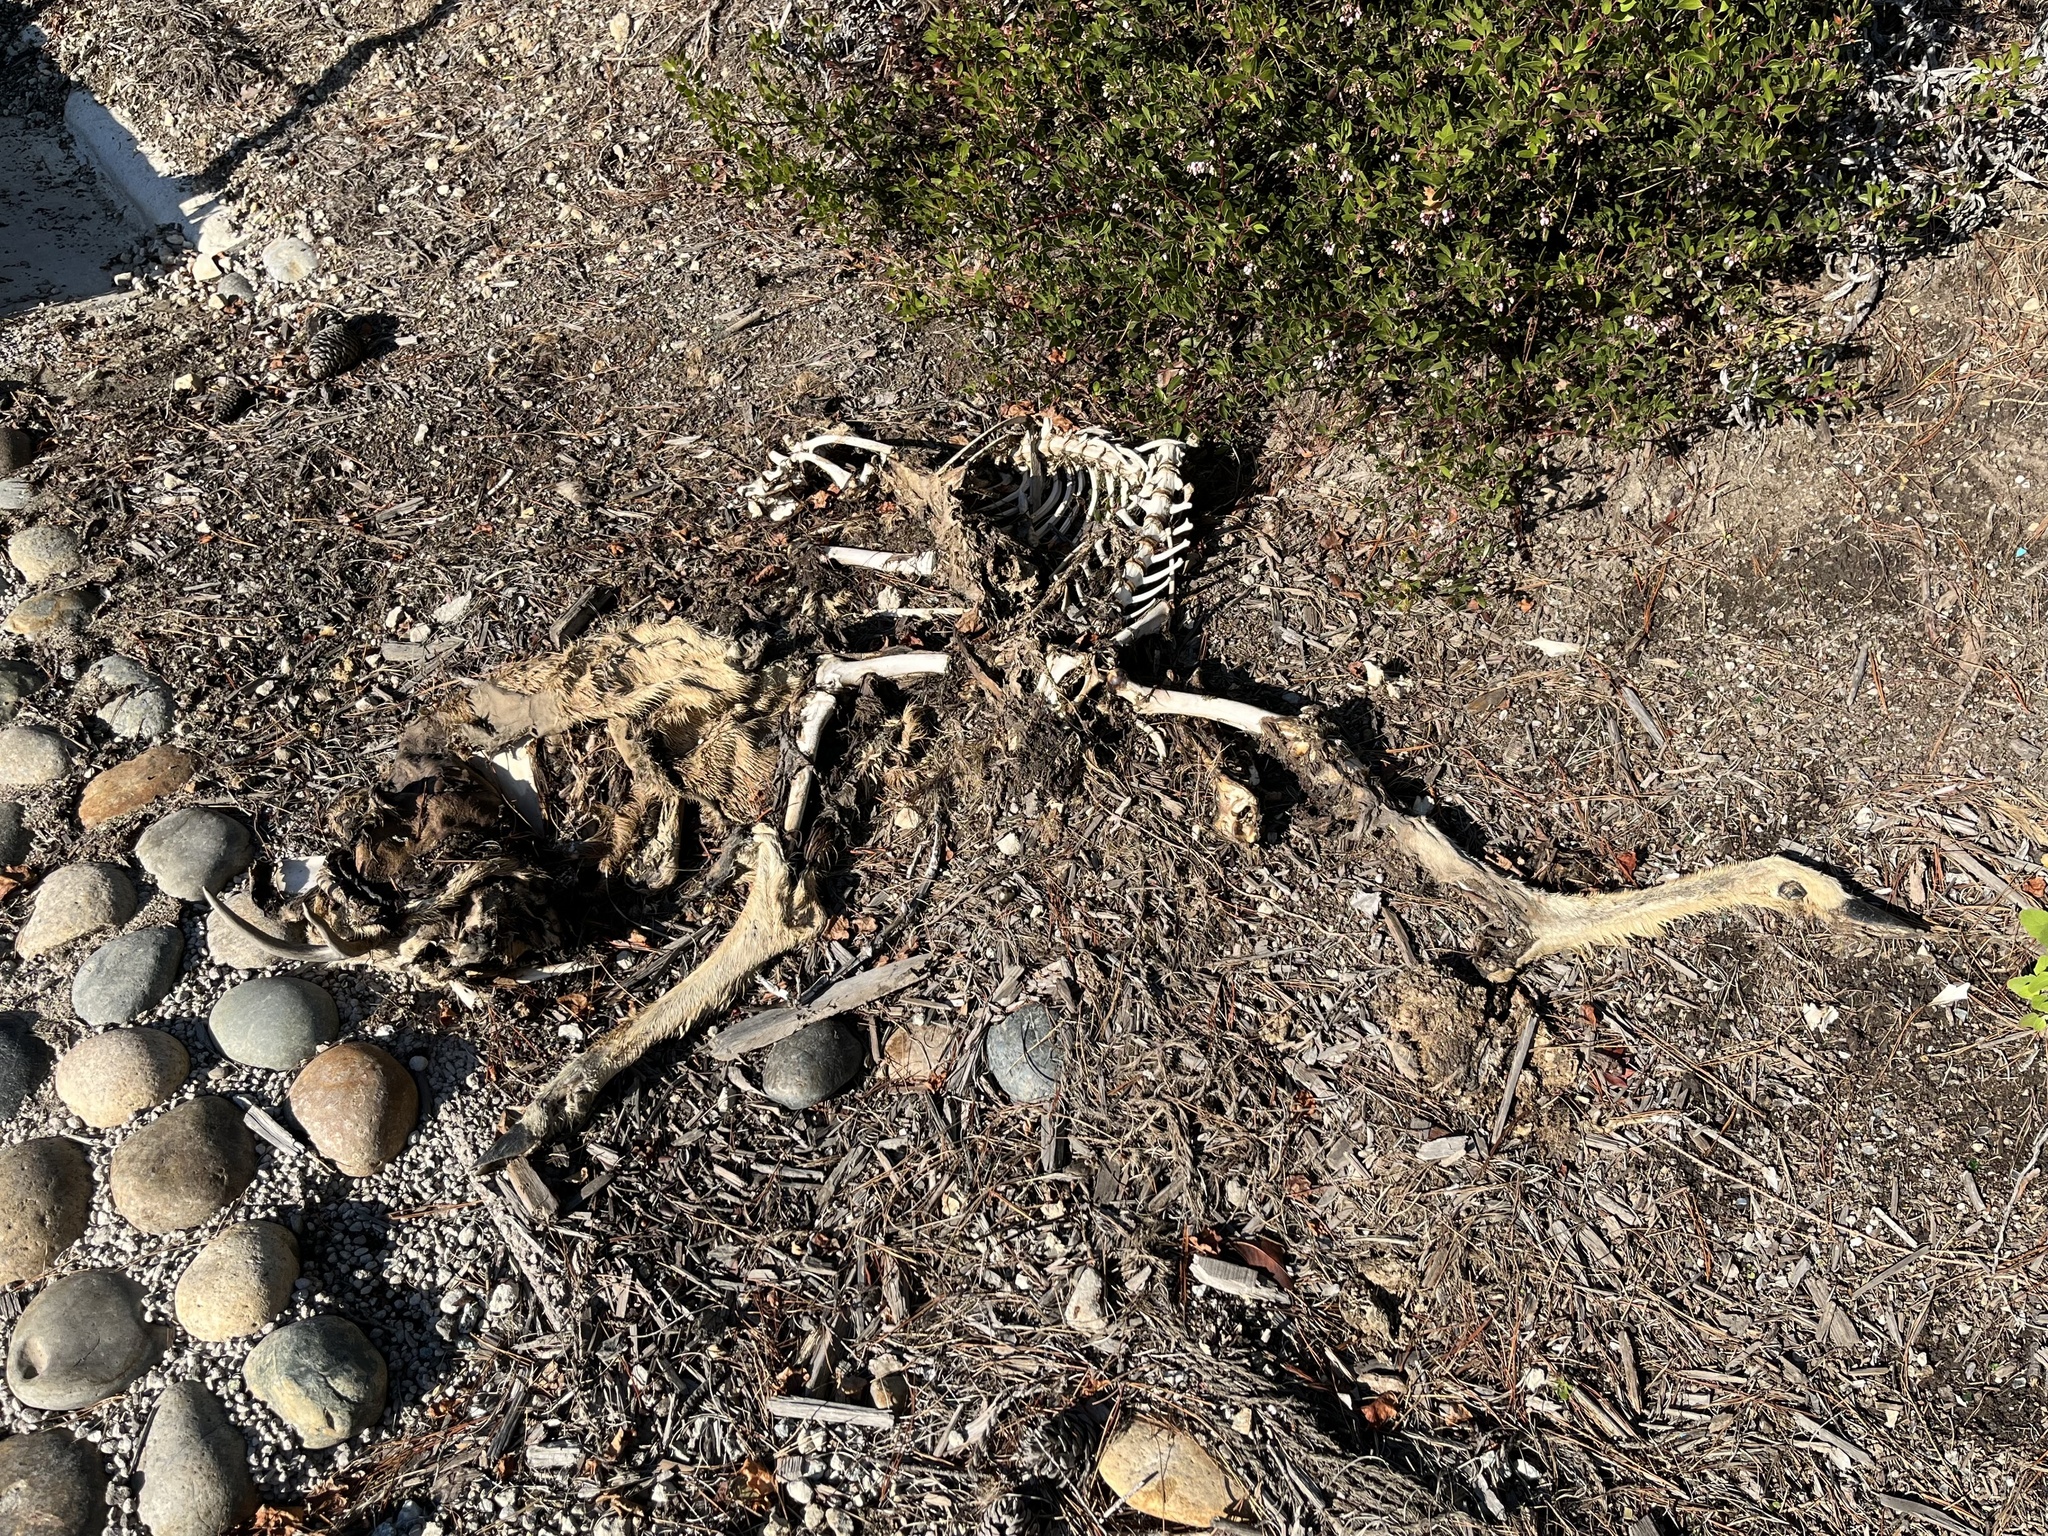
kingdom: Animalia
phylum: Chordata
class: Mammalia
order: Artiodactyla
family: Cervidae
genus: Odocoileus
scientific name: Odocoileus hemionus
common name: Mule deer
